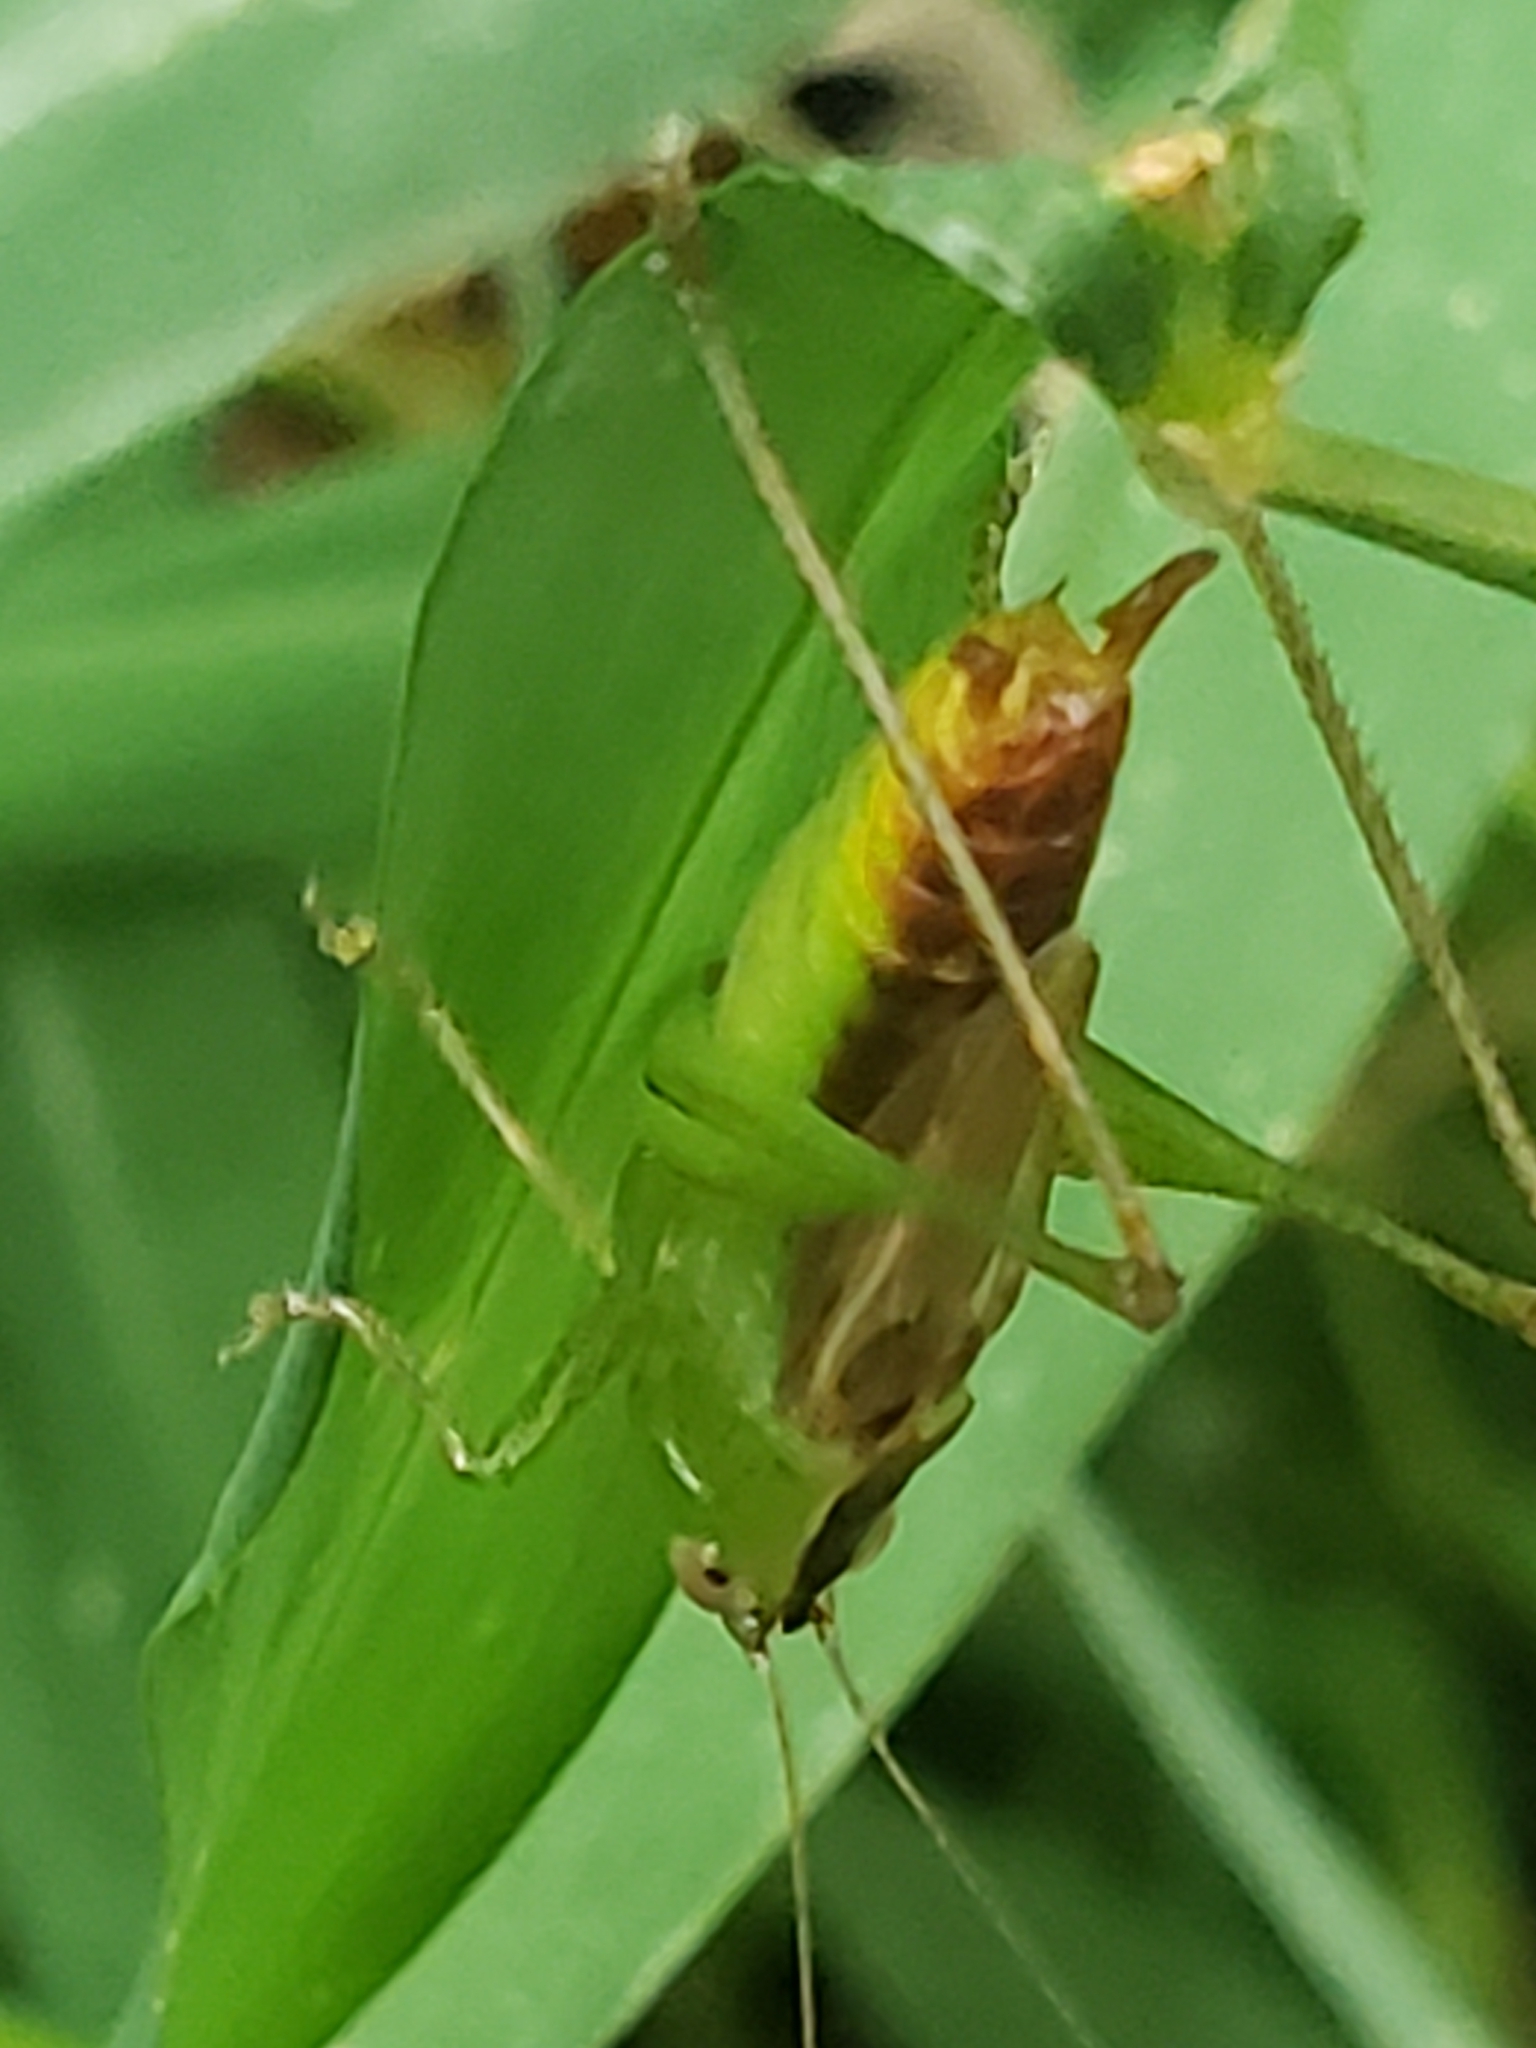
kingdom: Animalia
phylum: Arthropoda
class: Insecta
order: Orthoptera
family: Tettigoniidae
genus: Conocephalus
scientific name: Conocephalus brevipennis
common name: Short-winged meadow katydid
